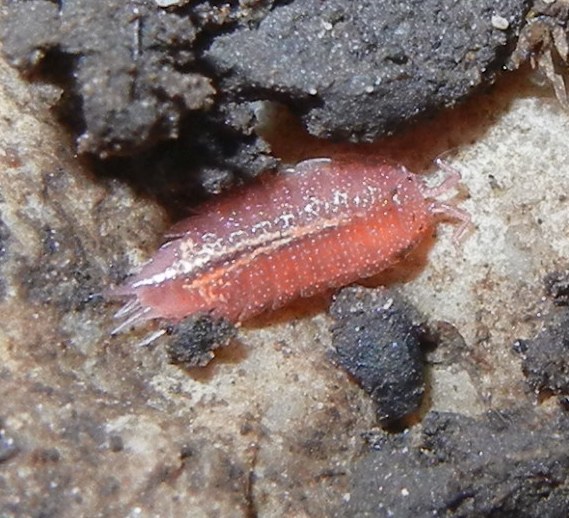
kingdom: Animalia
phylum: Arthropoda
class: Malacostraca
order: Isopoda
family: Trichoniscidae
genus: Androniscus
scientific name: Androniscus dentiger
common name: Rosy woodlouse
